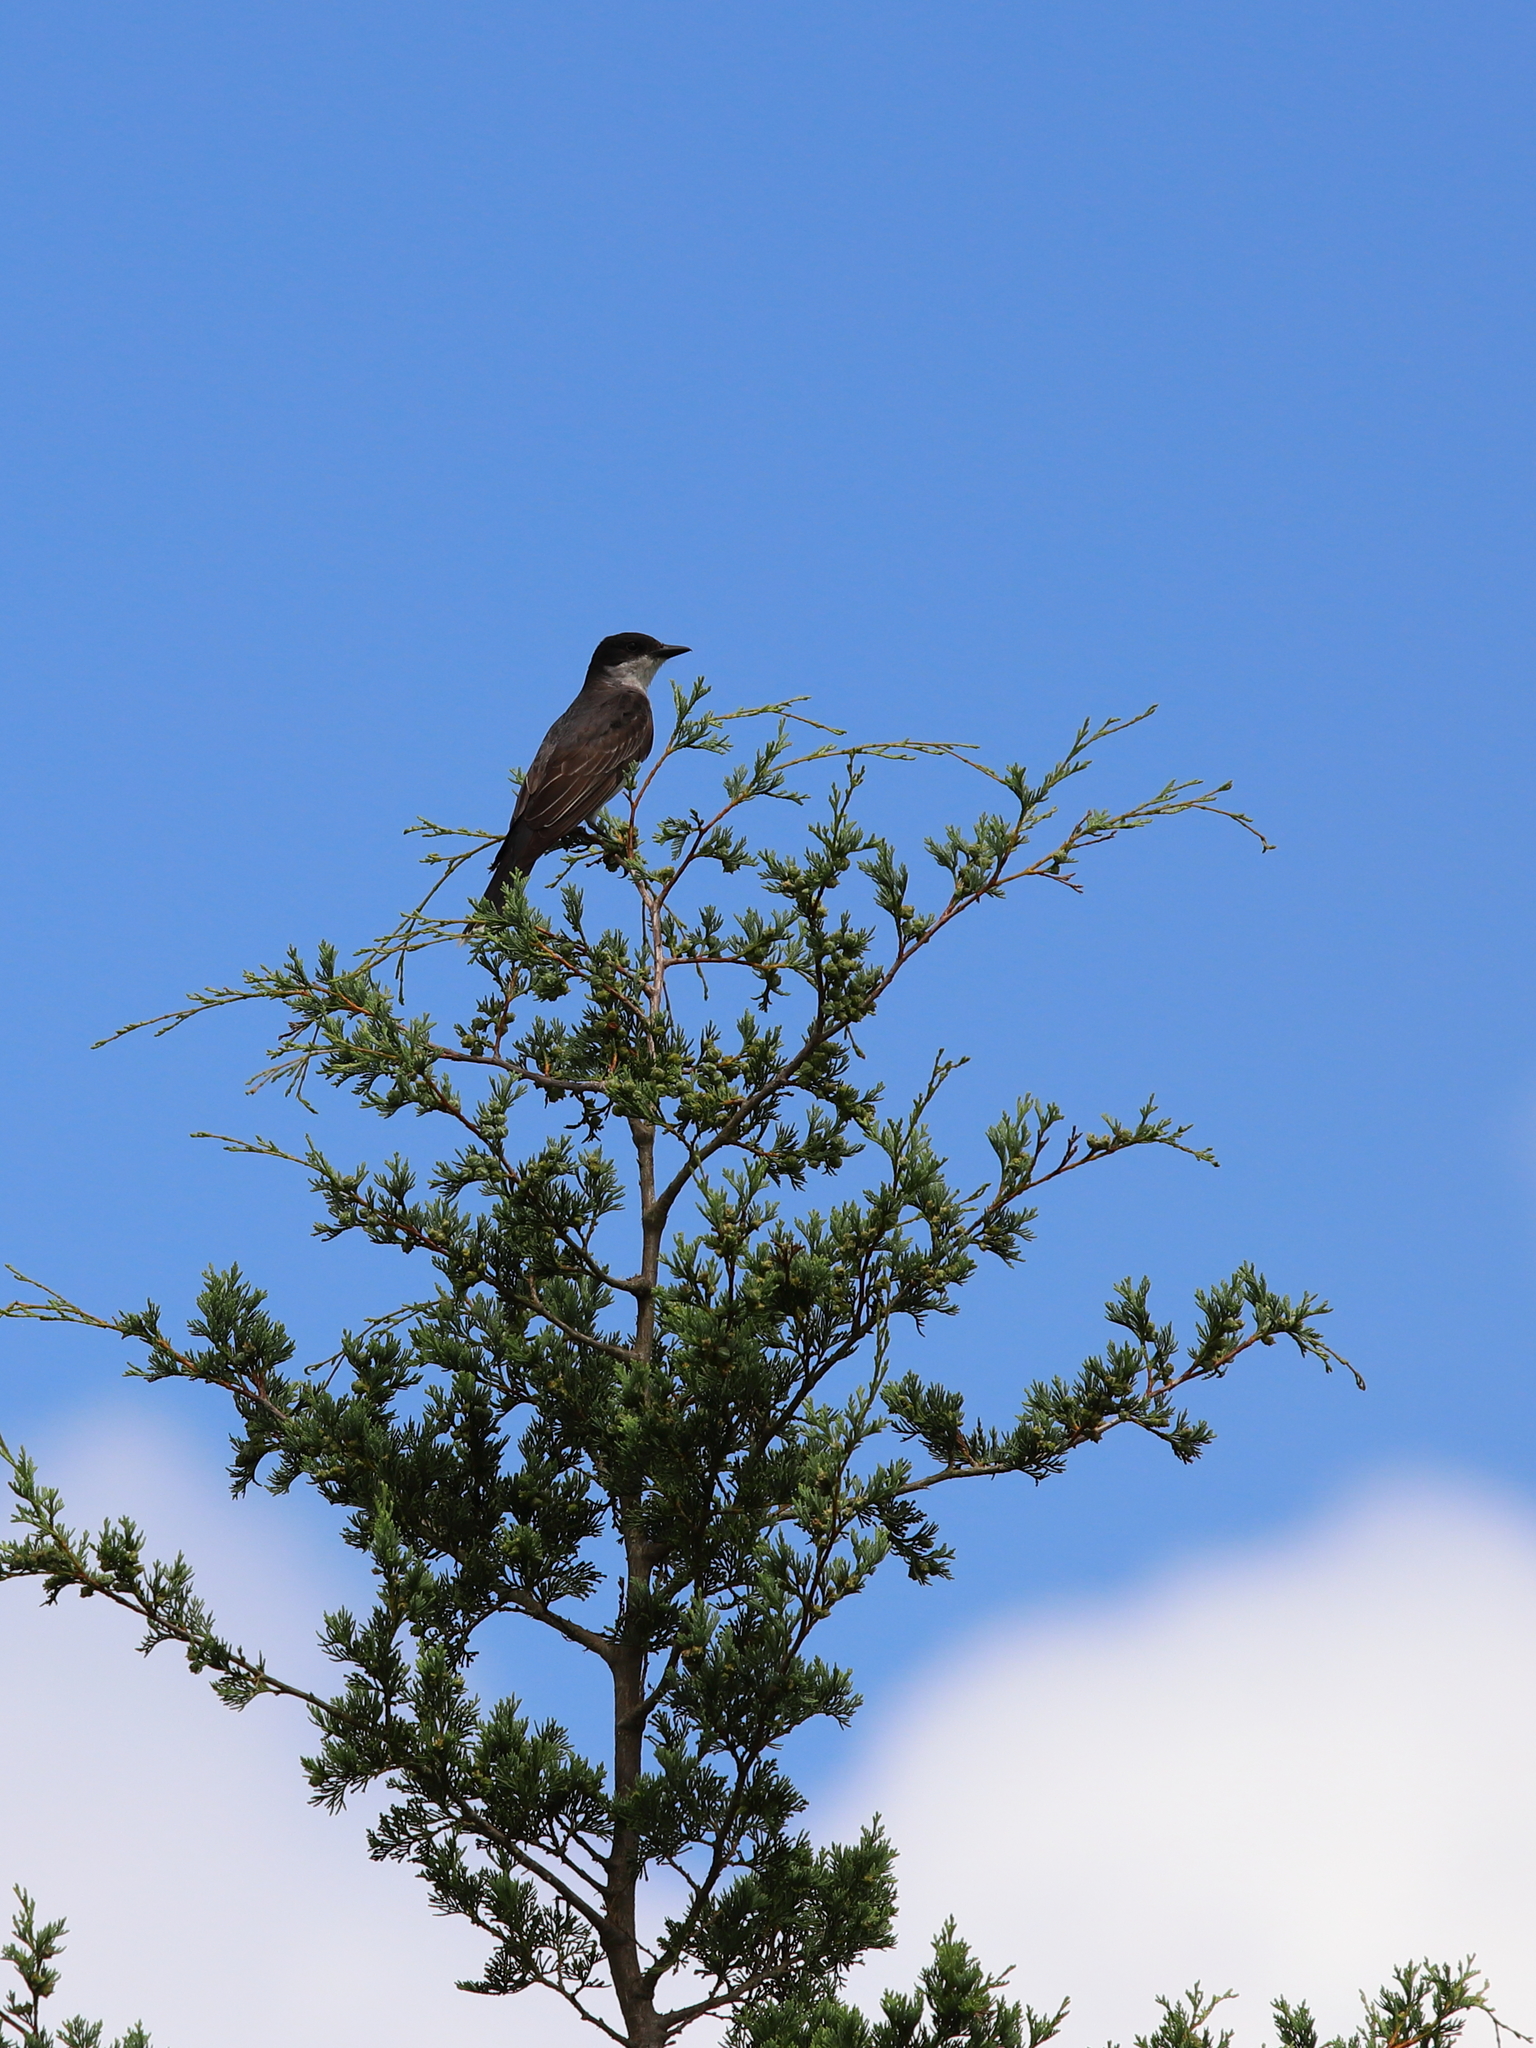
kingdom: Animalia
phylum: Chordata
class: Aves
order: Passeriformes
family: Tyrannidae
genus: Tyrannus
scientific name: Tyrannus tyrannus
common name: Eastern kingbird
